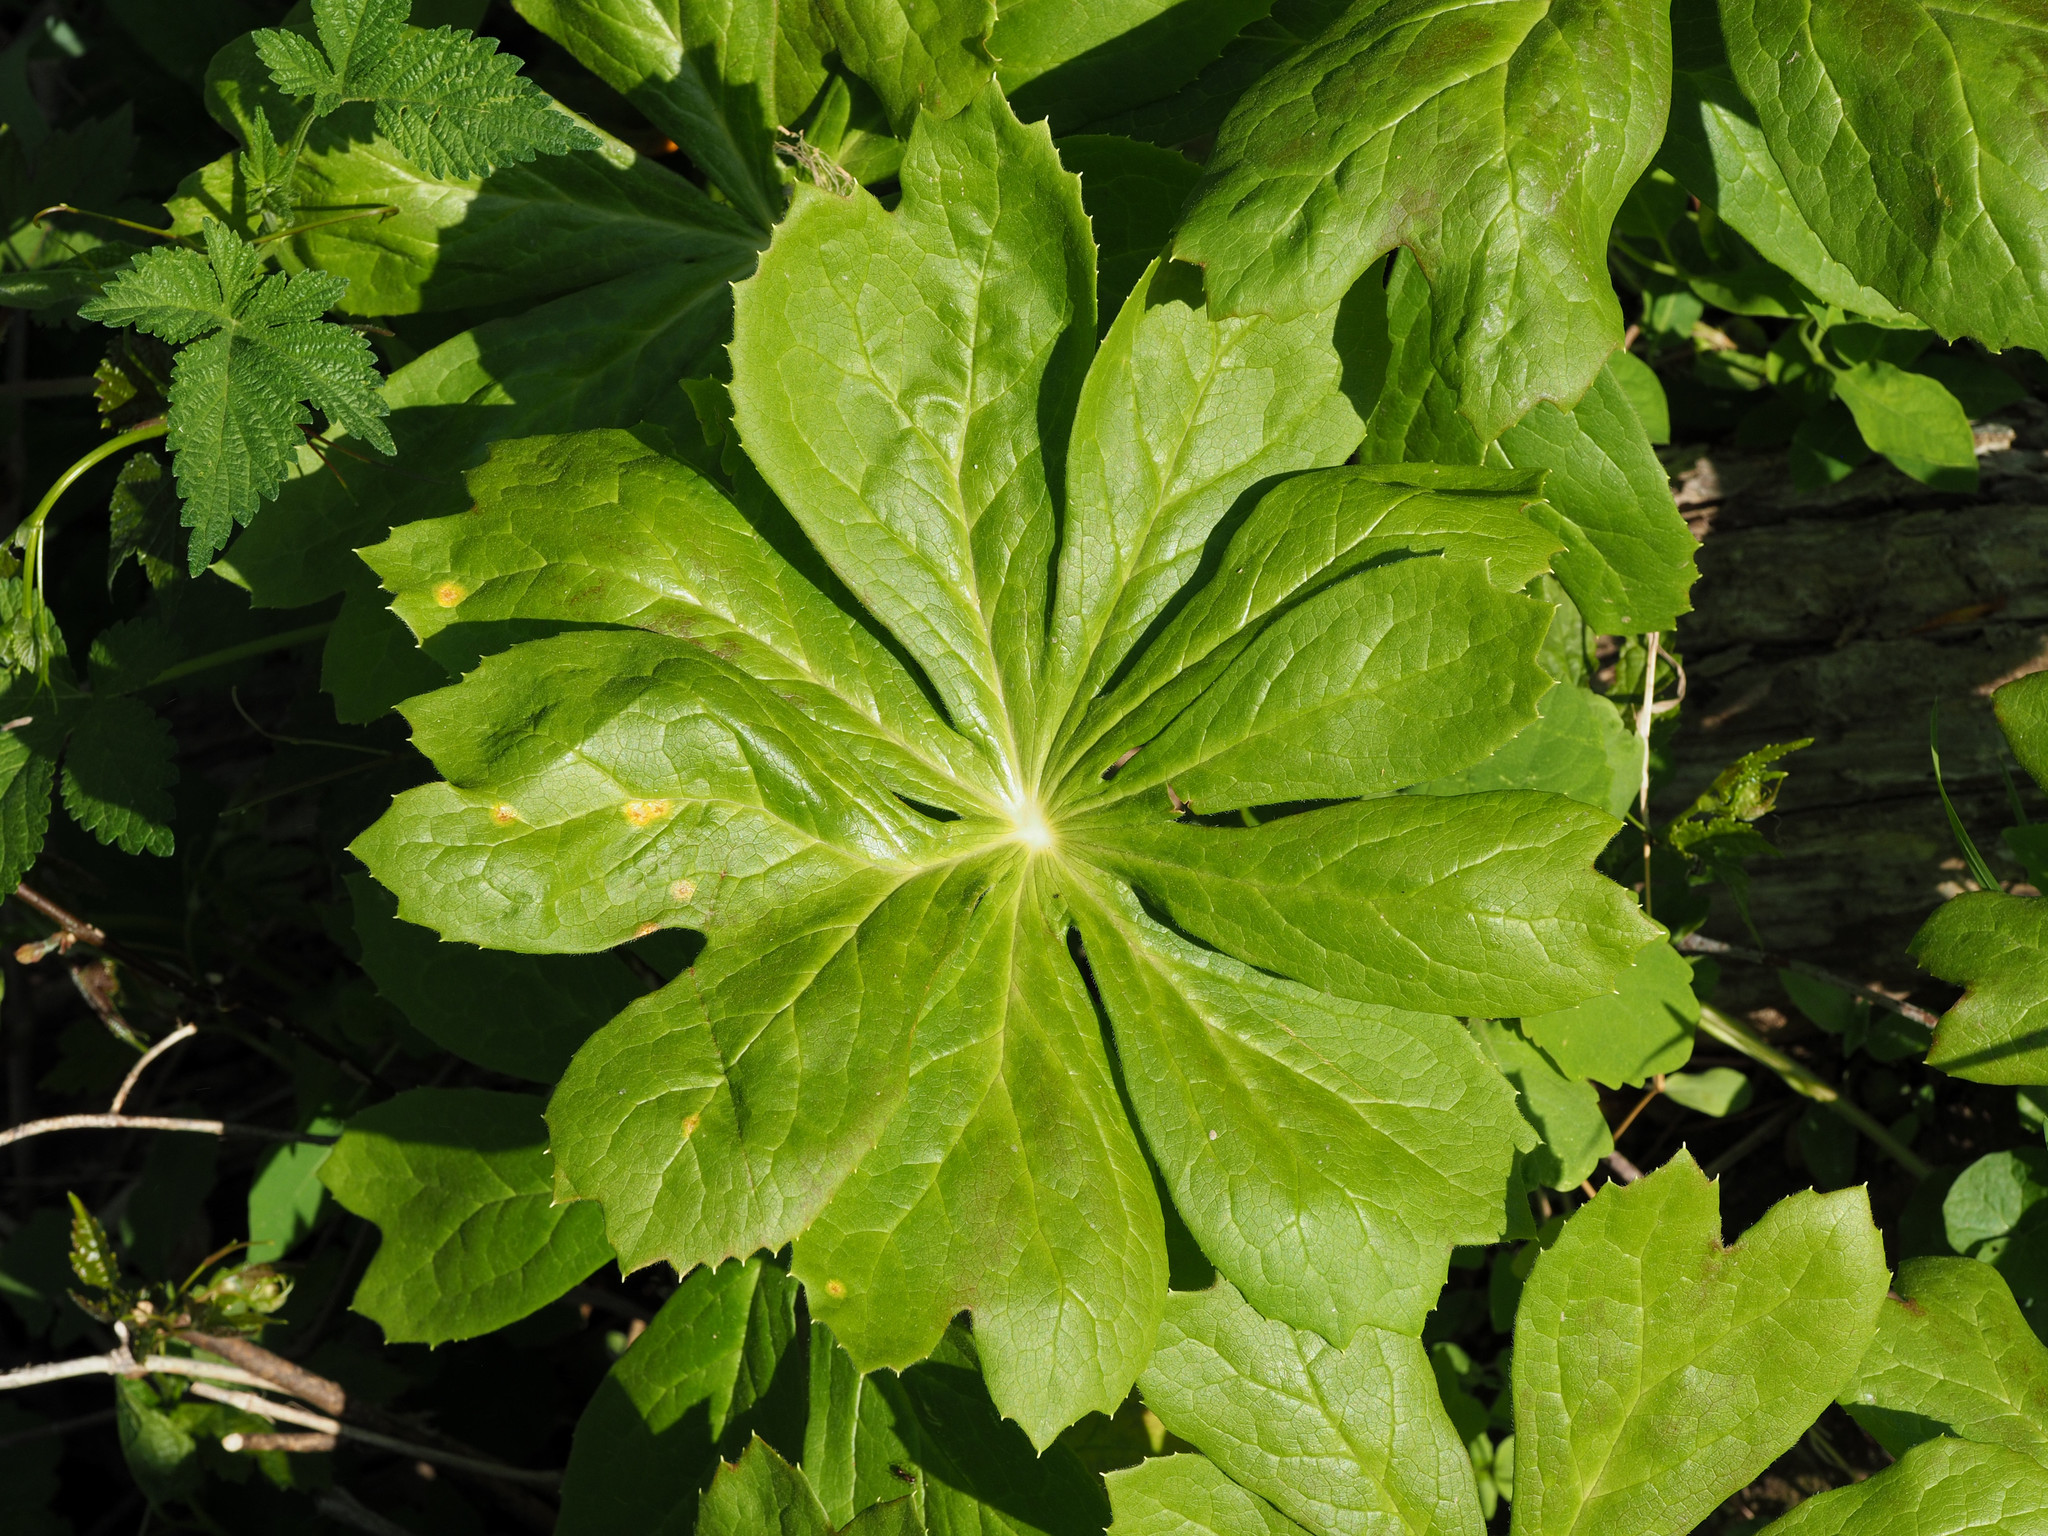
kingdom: Plantae
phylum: Tracheophyta
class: Magnoliopsida
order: Ranunculales
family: Berberidaceae
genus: Podophyllum
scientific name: Podophyllum peltatum
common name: Wild mandrake
